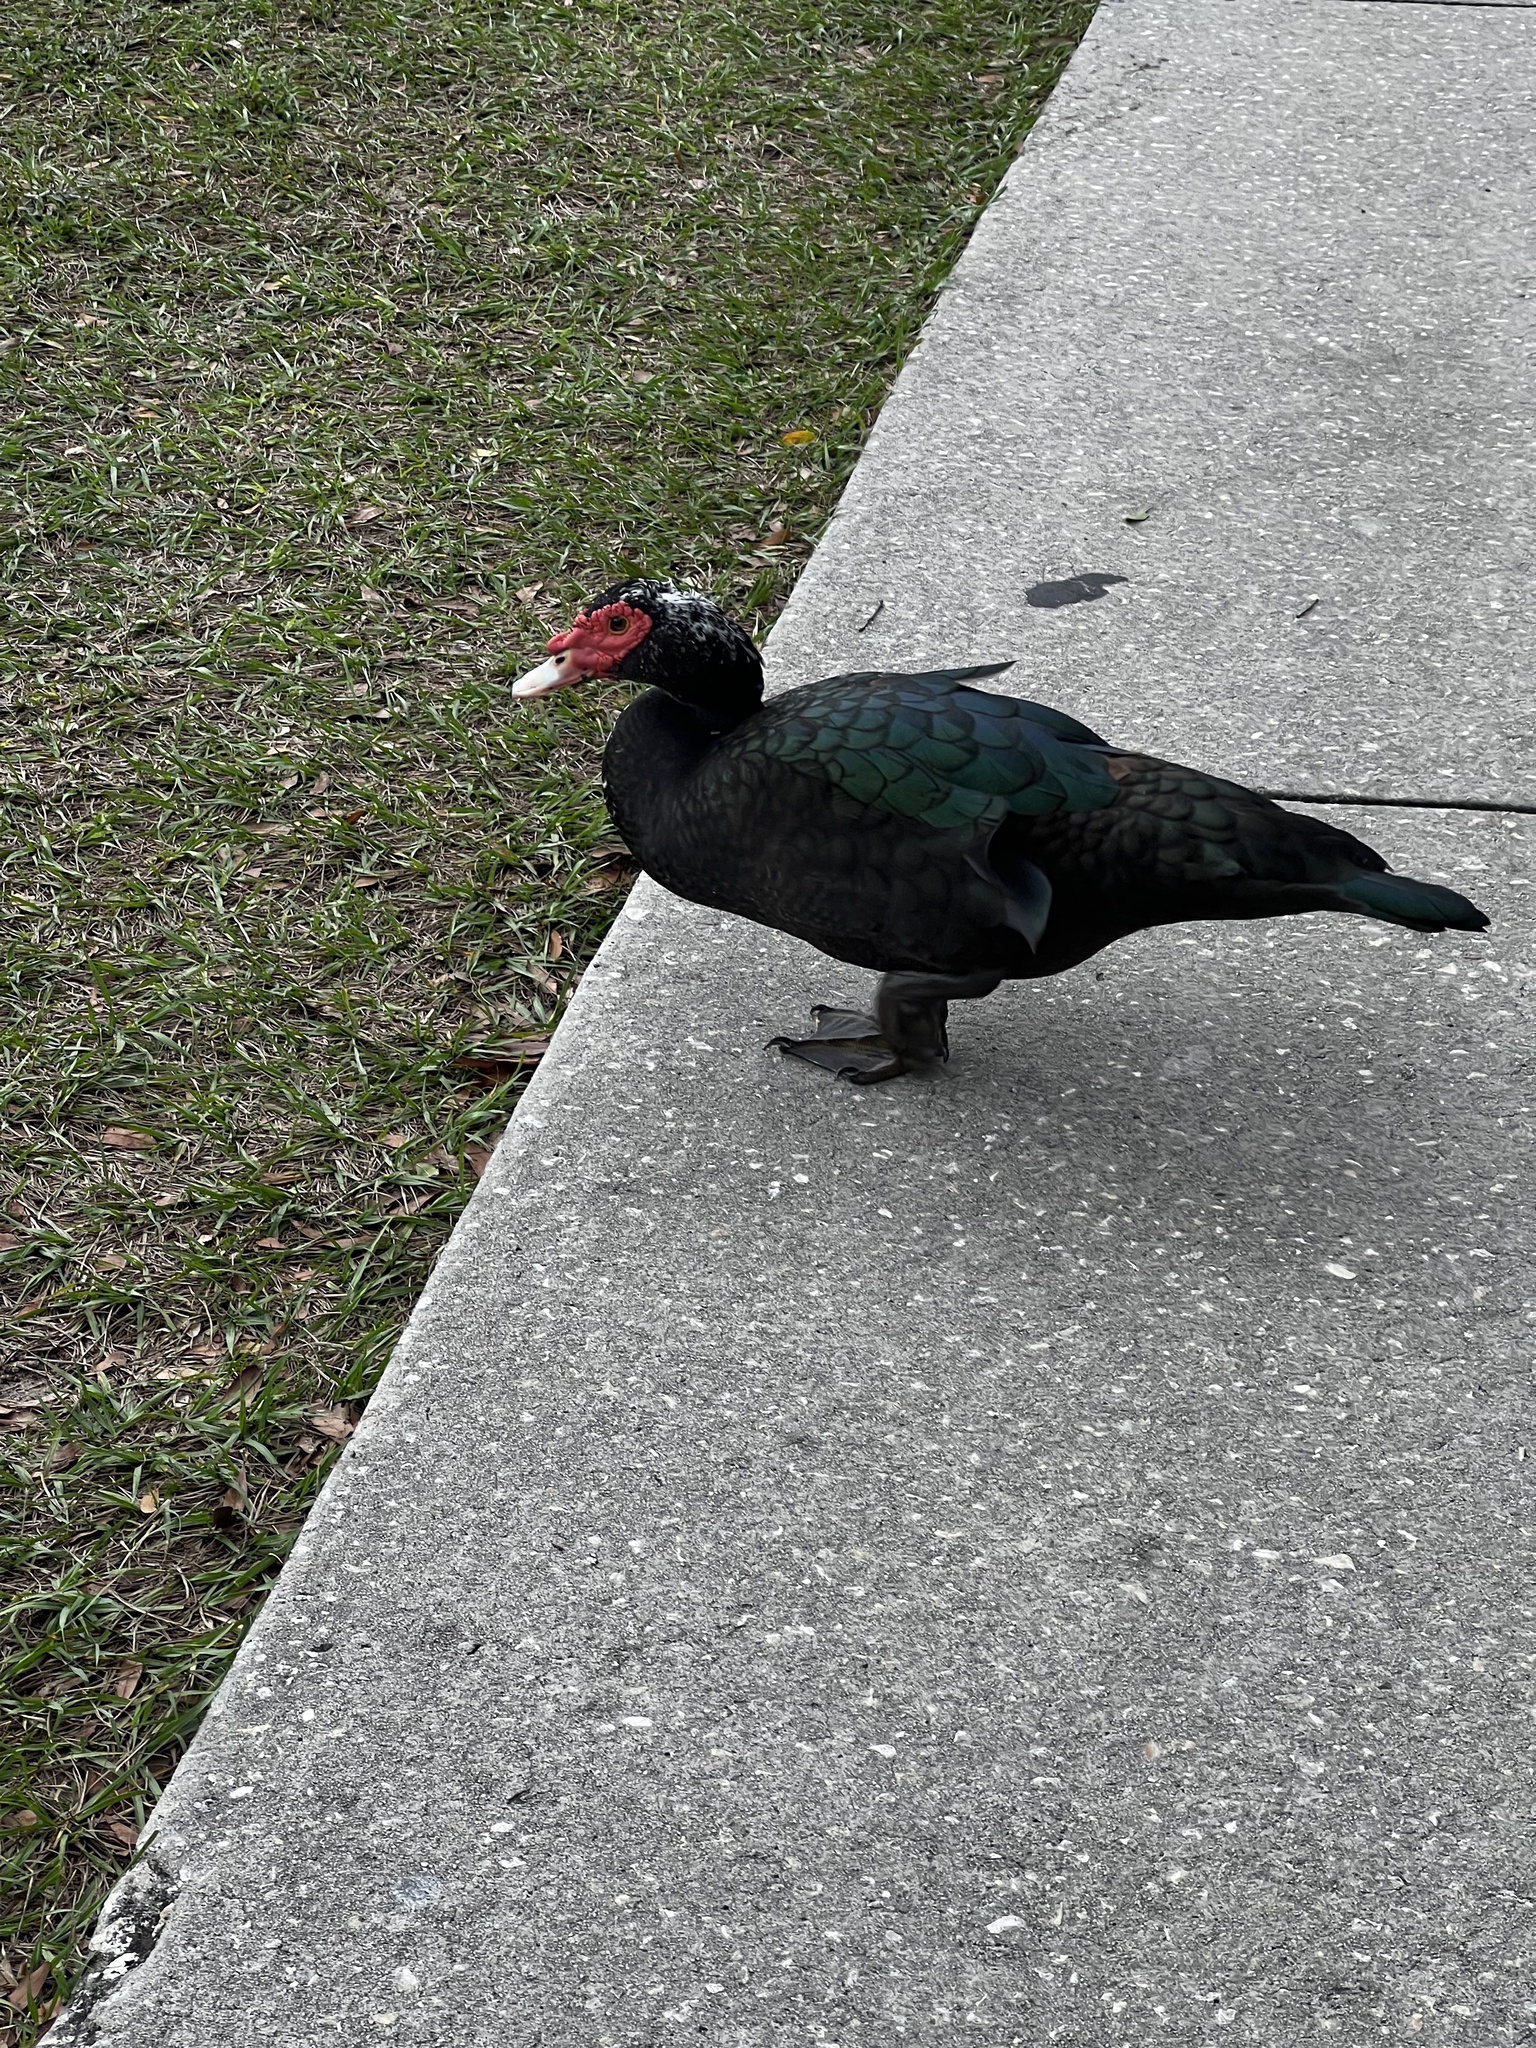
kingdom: Animalia
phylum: Chordata
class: Aves
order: Anseriformes
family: Anatidae
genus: Cairina
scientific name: Cairina moschata
